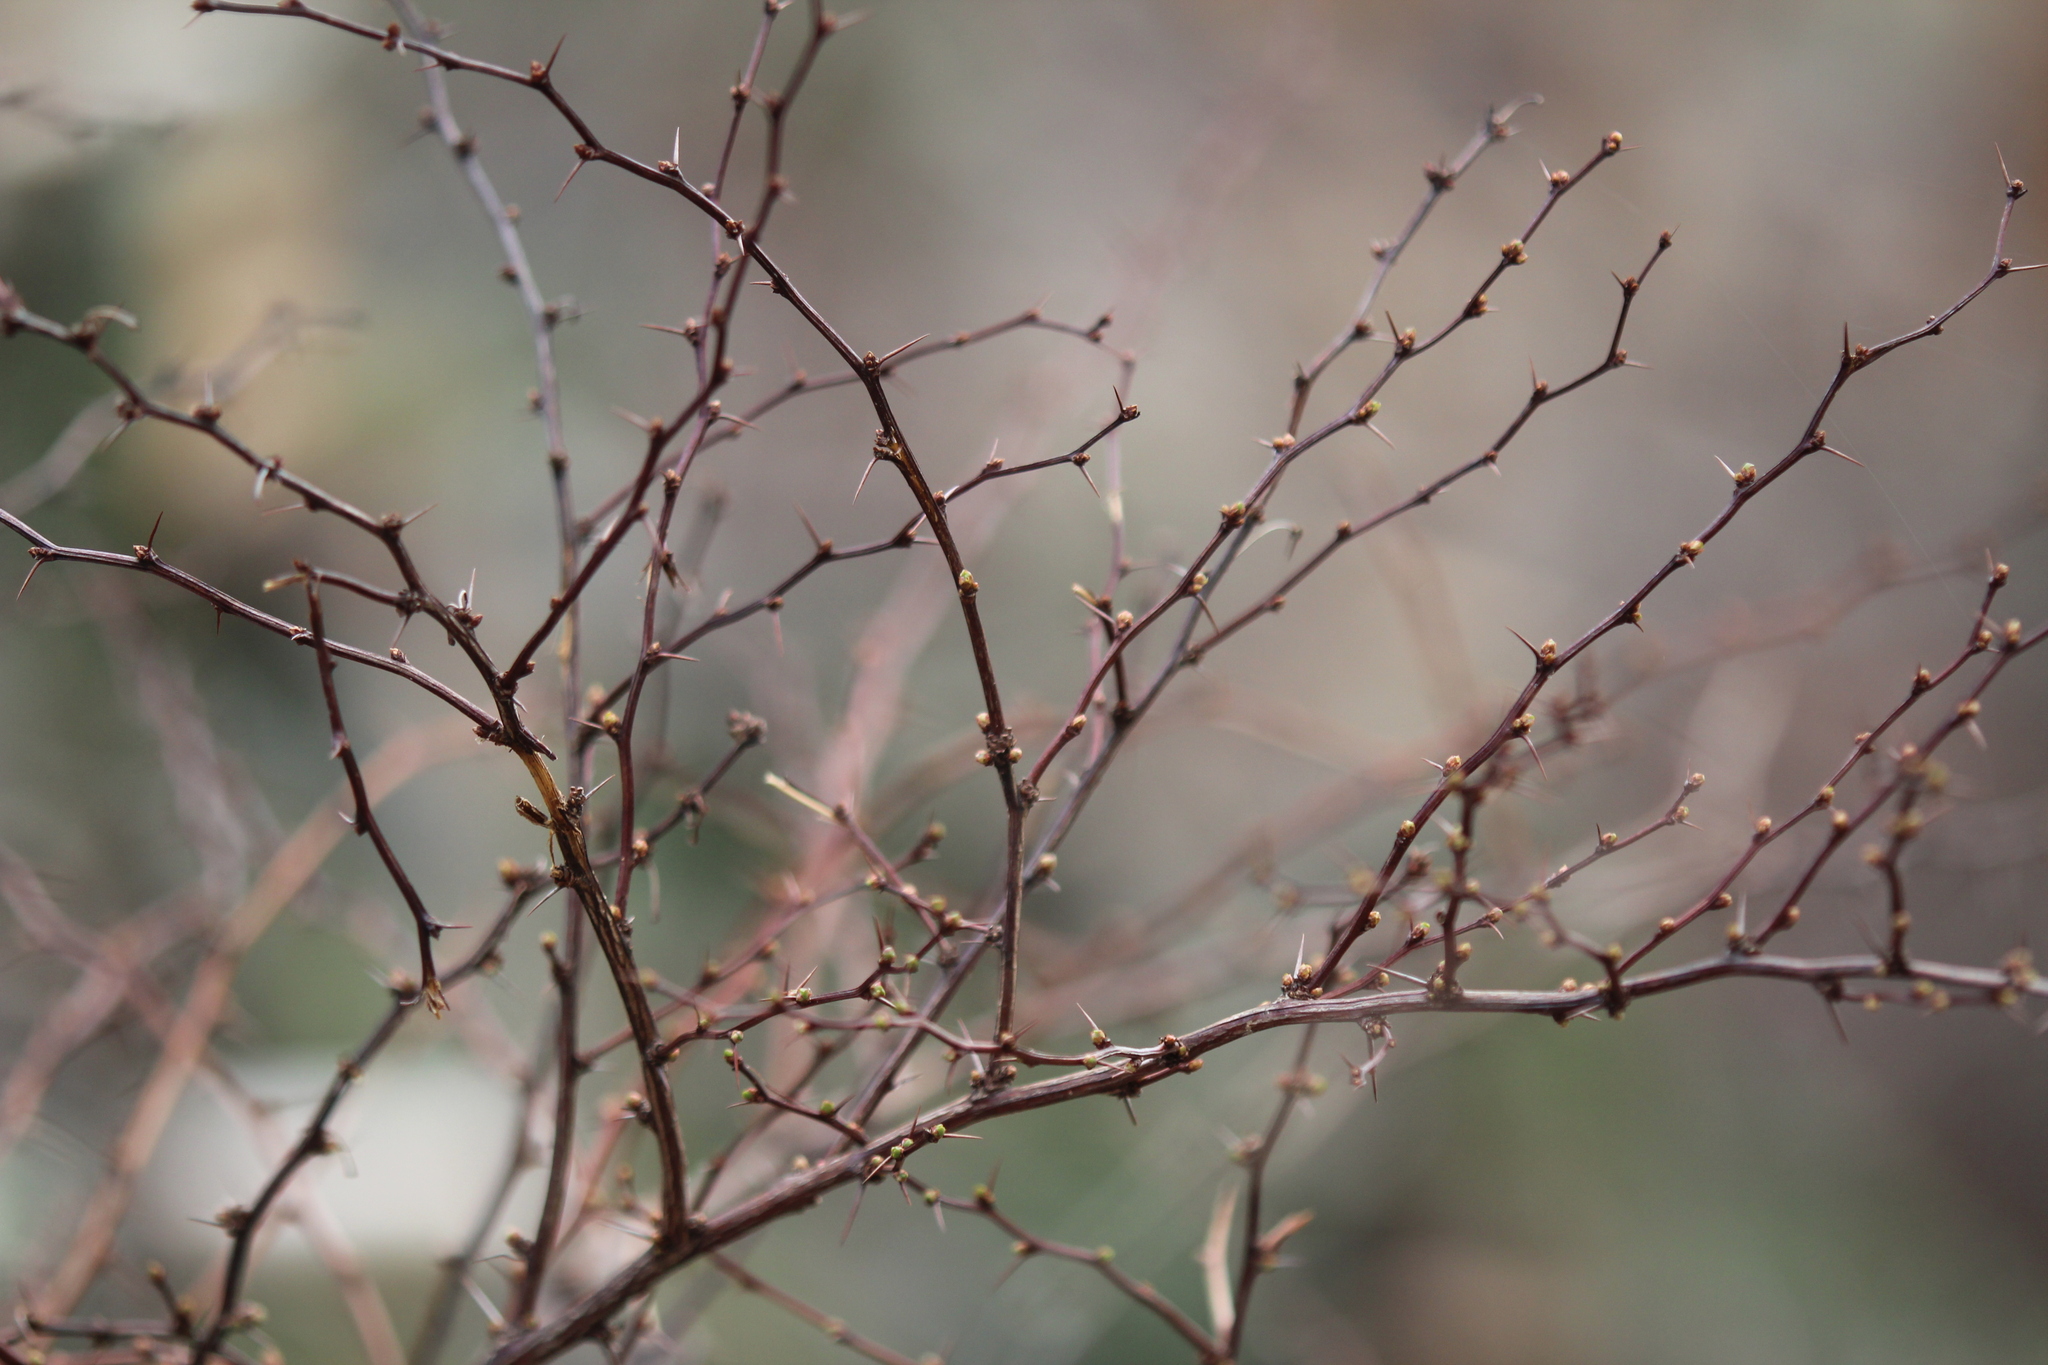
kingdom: Plantae
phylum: Tracheophyta
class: Magnoliopsida
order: Ranunculales
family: Berberidaceae
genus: Berberis
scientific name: Berberis thunbergii
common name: Japanese barberry
